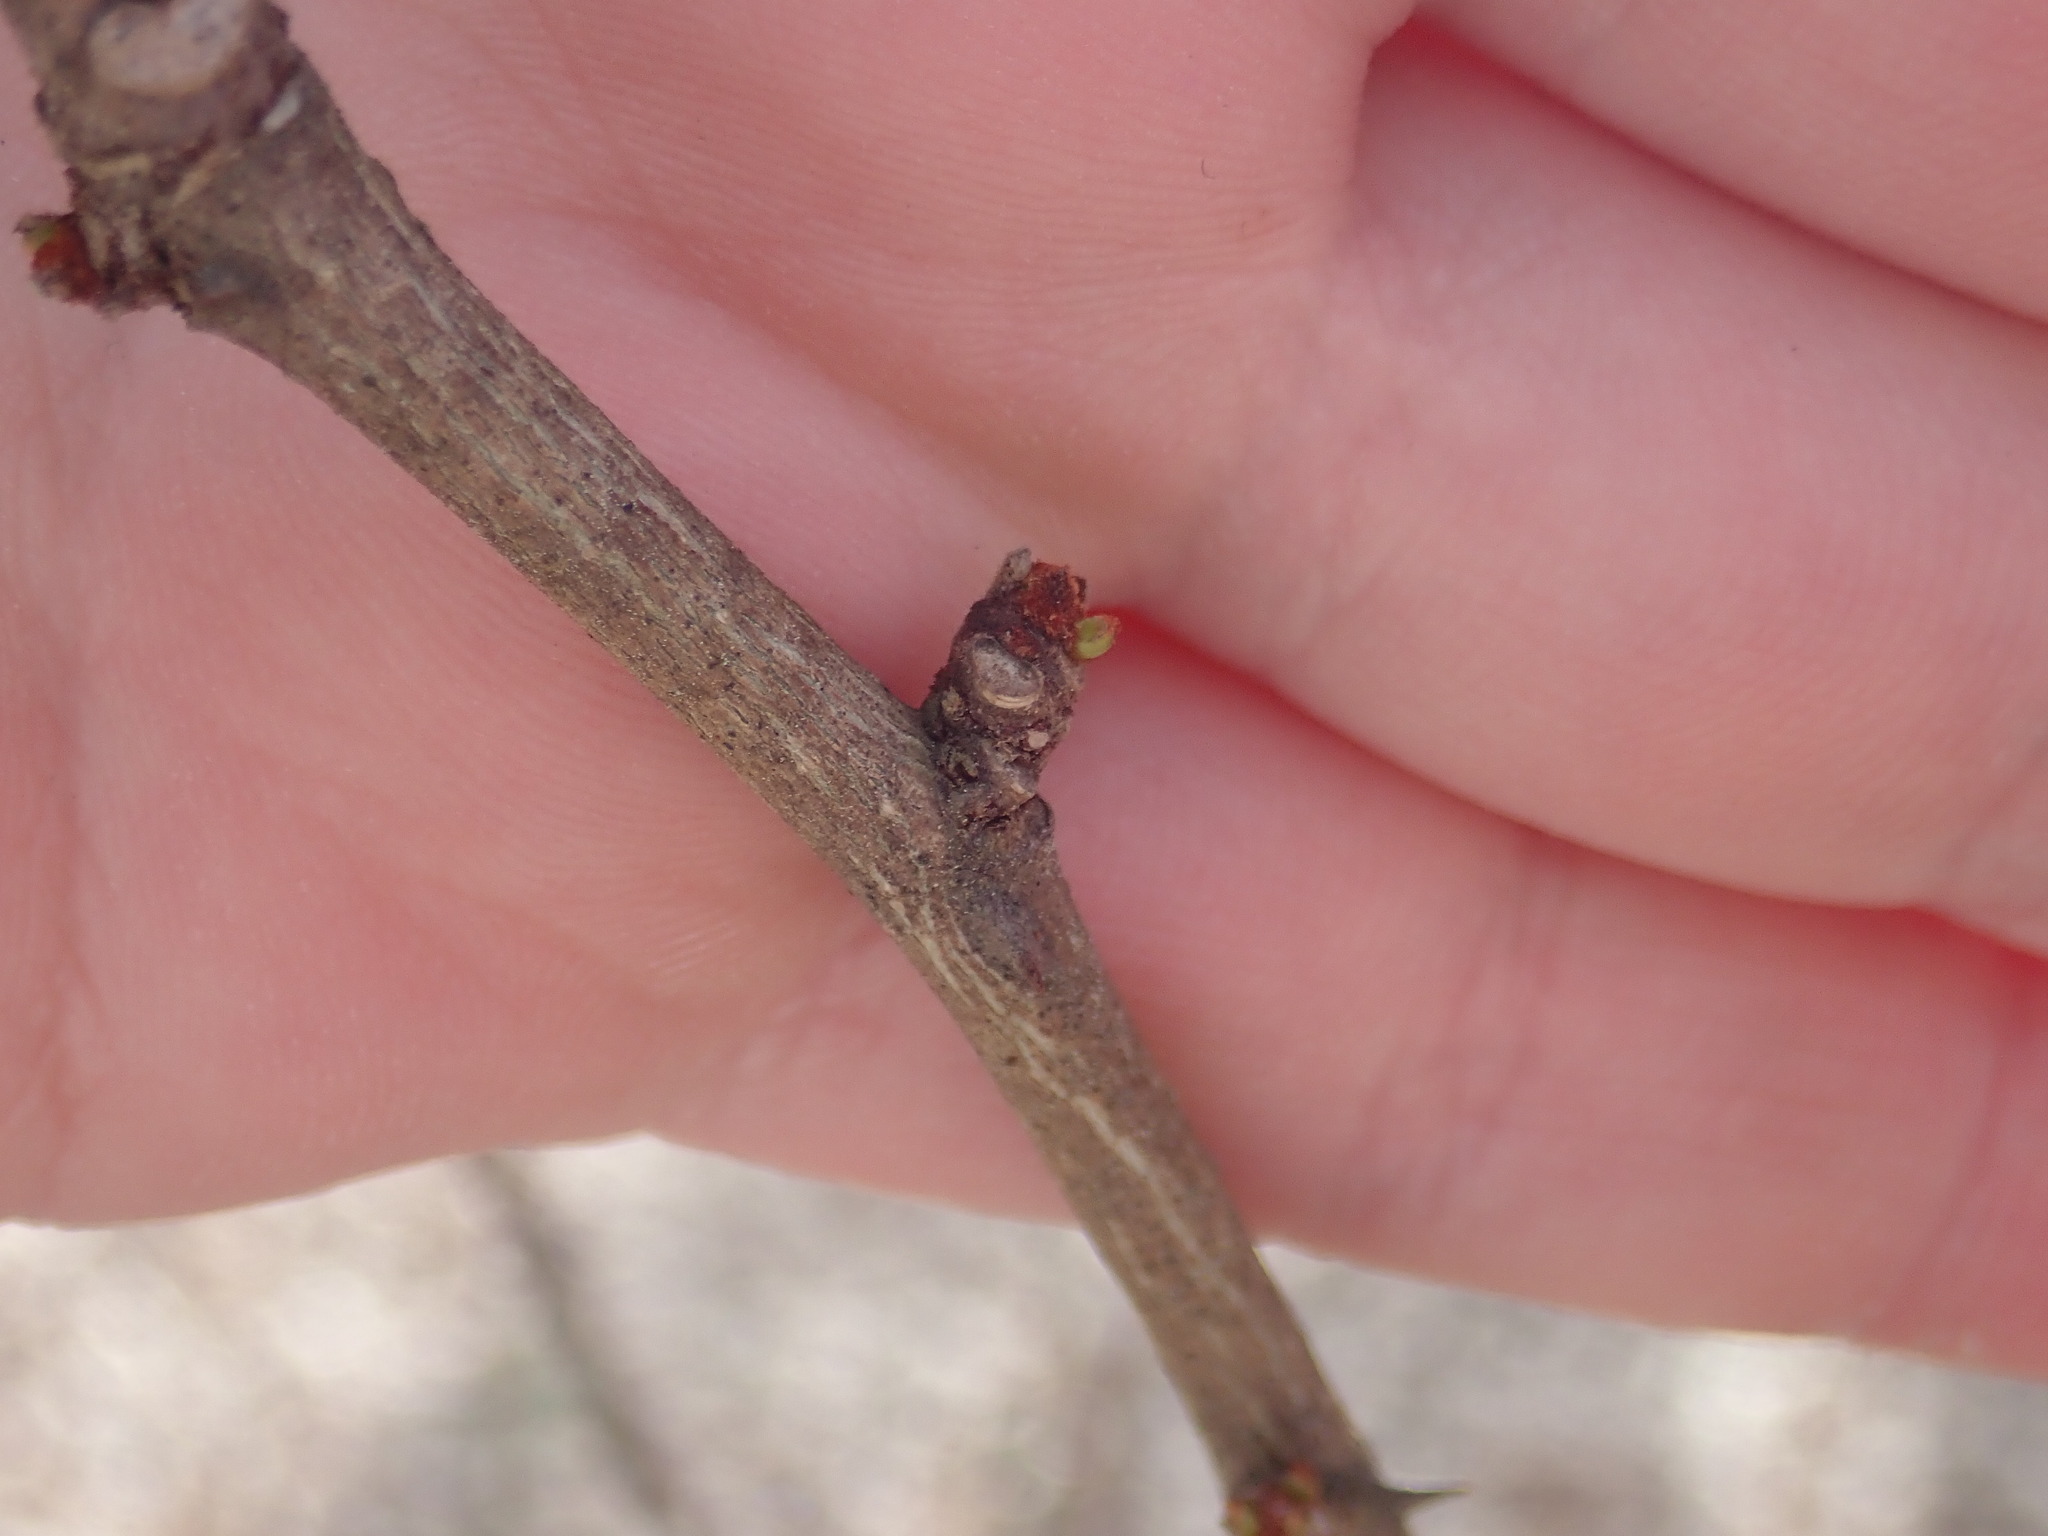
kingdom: Plantae
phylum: Tracheophyta
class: Magnoliopsida
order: Sapindales
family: Rutaceae
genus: Zanthoxylum
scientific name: Zanthoxylum americanum
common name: Northern prickly-ash
